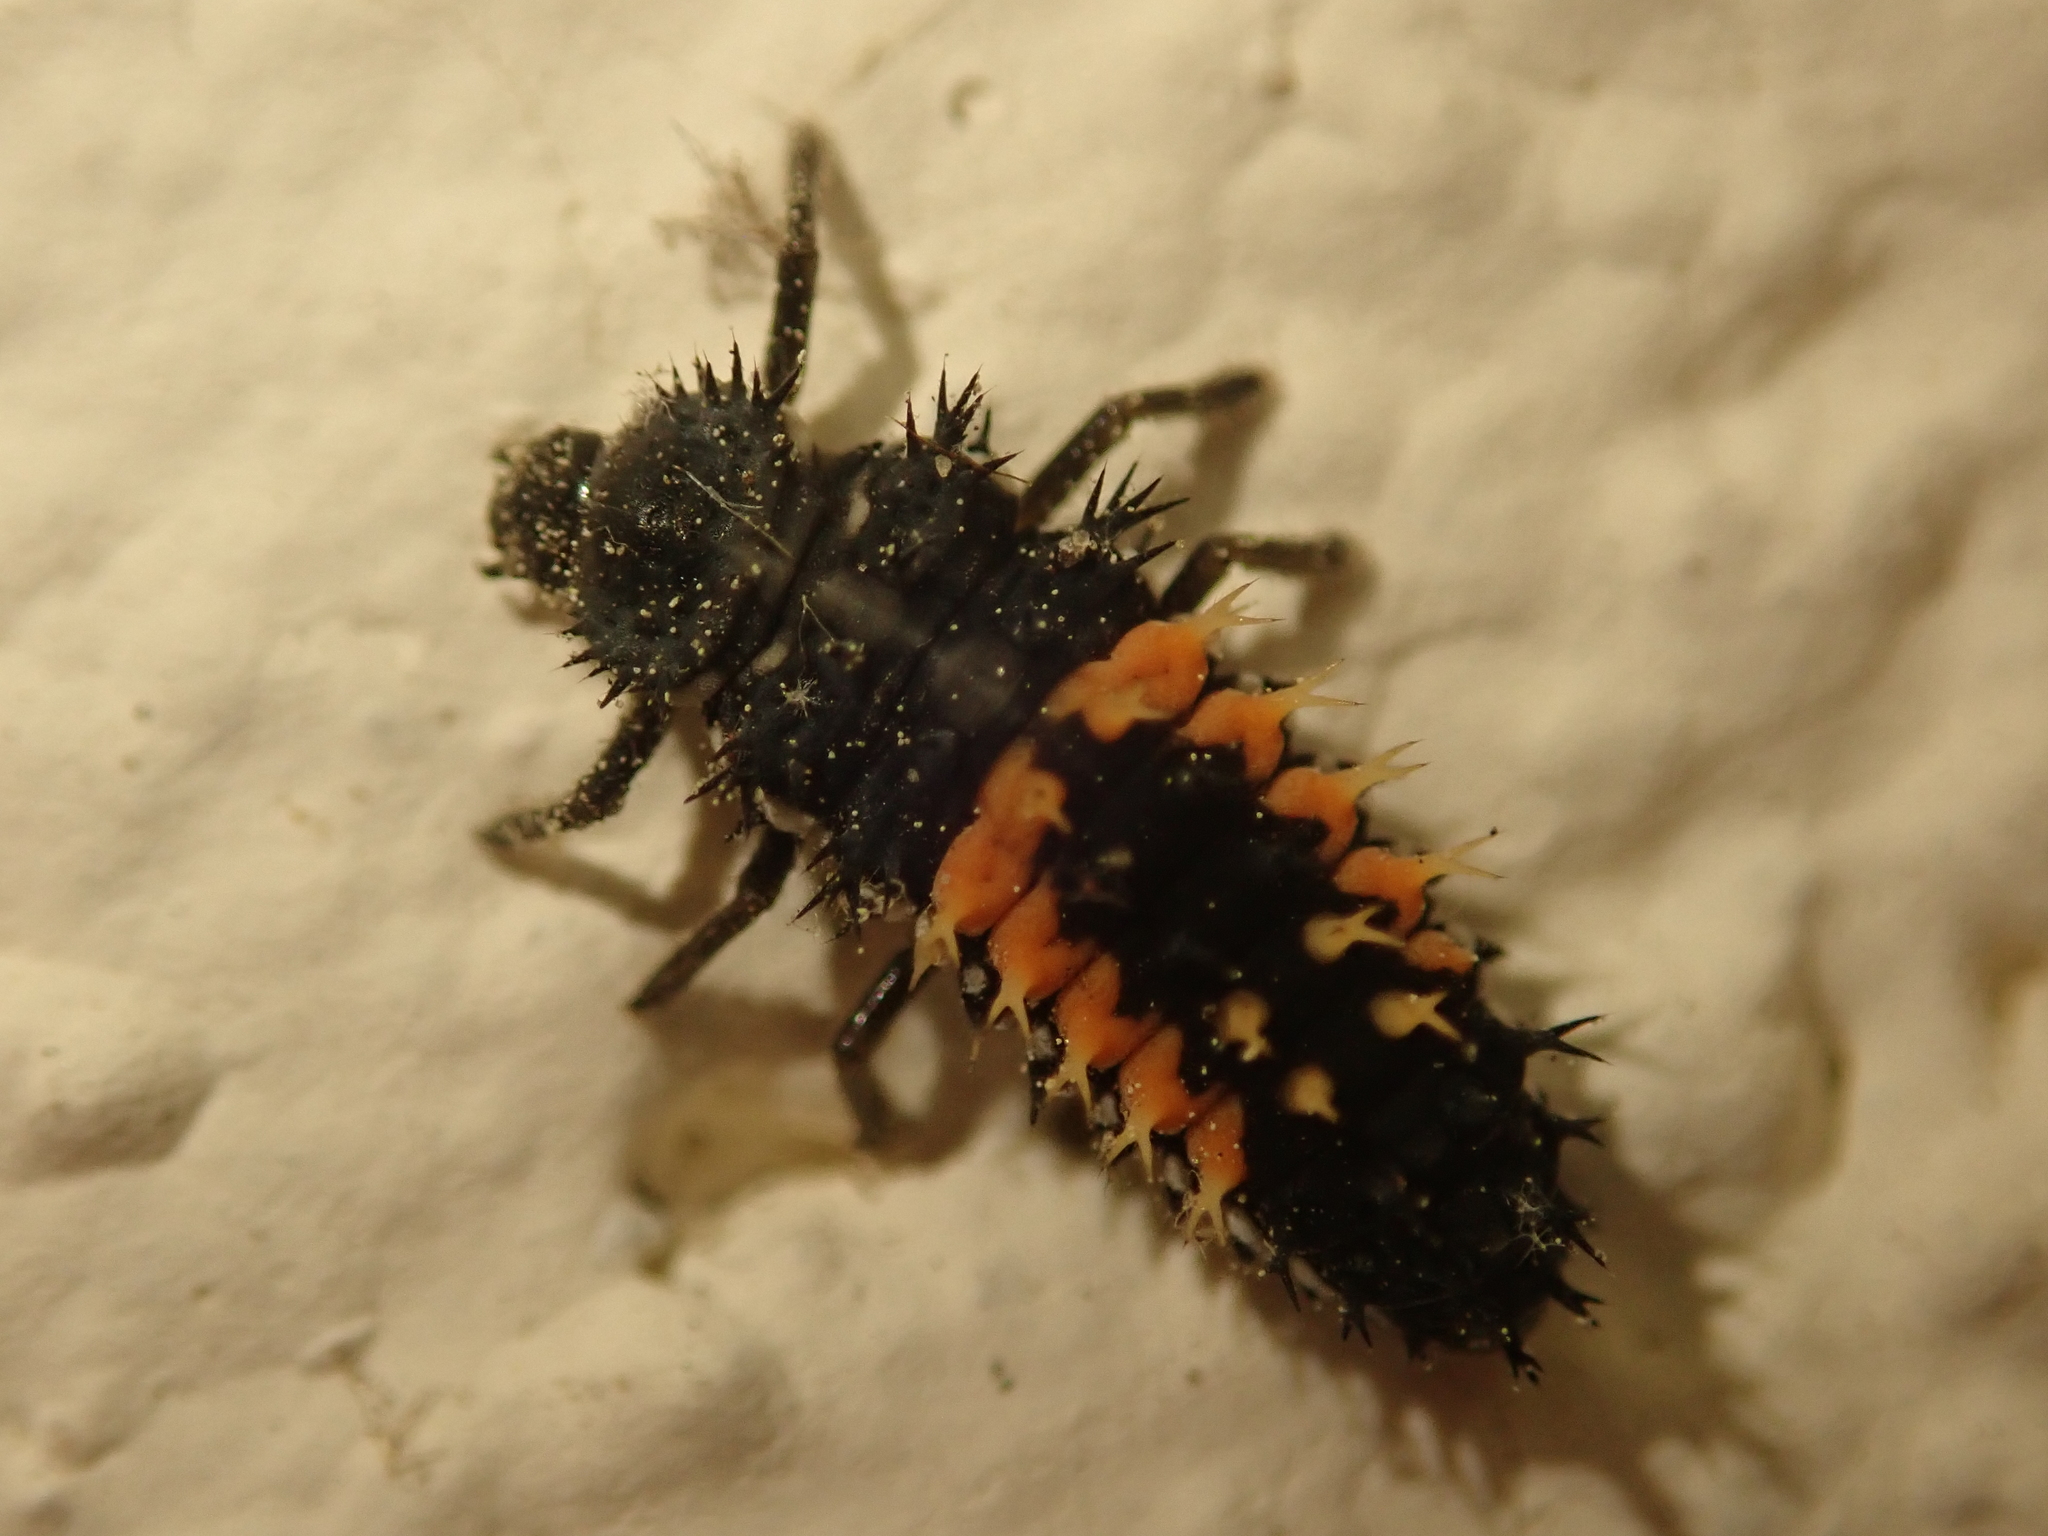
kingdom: Animalia
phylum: Arthropoda
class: Insecta
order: Coleoptera
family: Coccinellidae
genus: Harmonia
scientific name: Harmonia axyridis
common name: Harlequin ladybird
